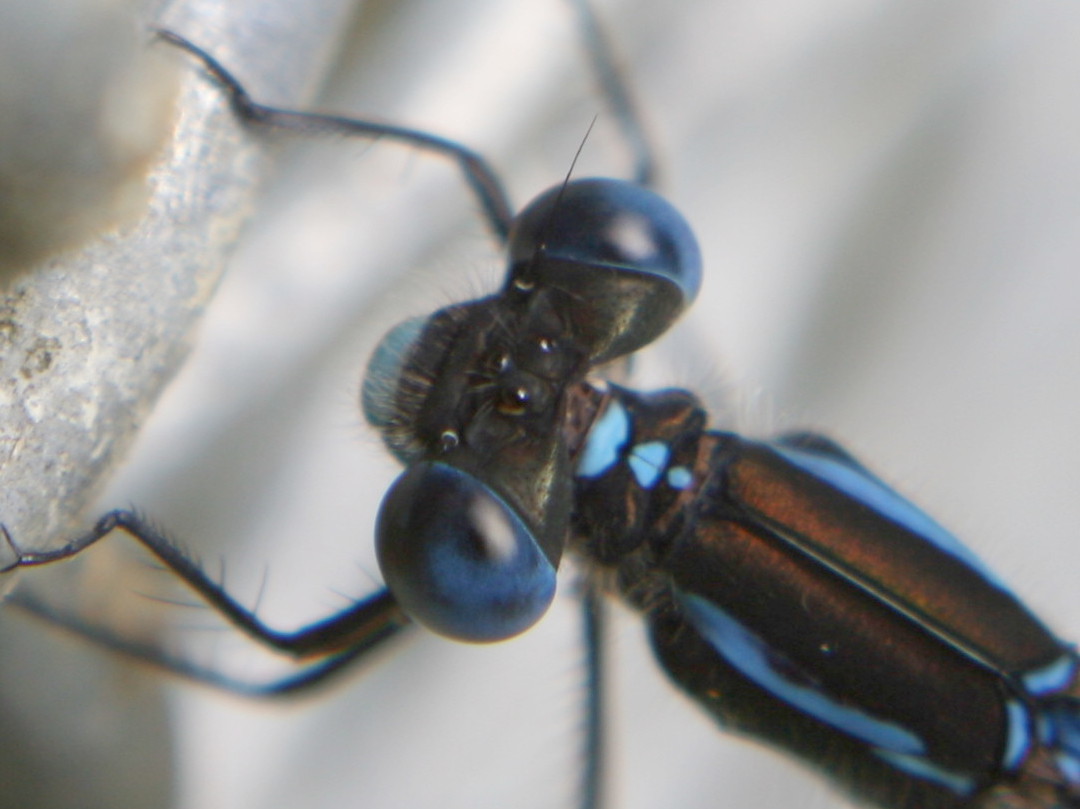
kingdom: Animalia
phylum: Arthropoda
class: Insecta
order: Odonata
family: Lestidae
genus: Austrolestes
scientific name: Austrolestes colensonis
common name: Blue damselfly
